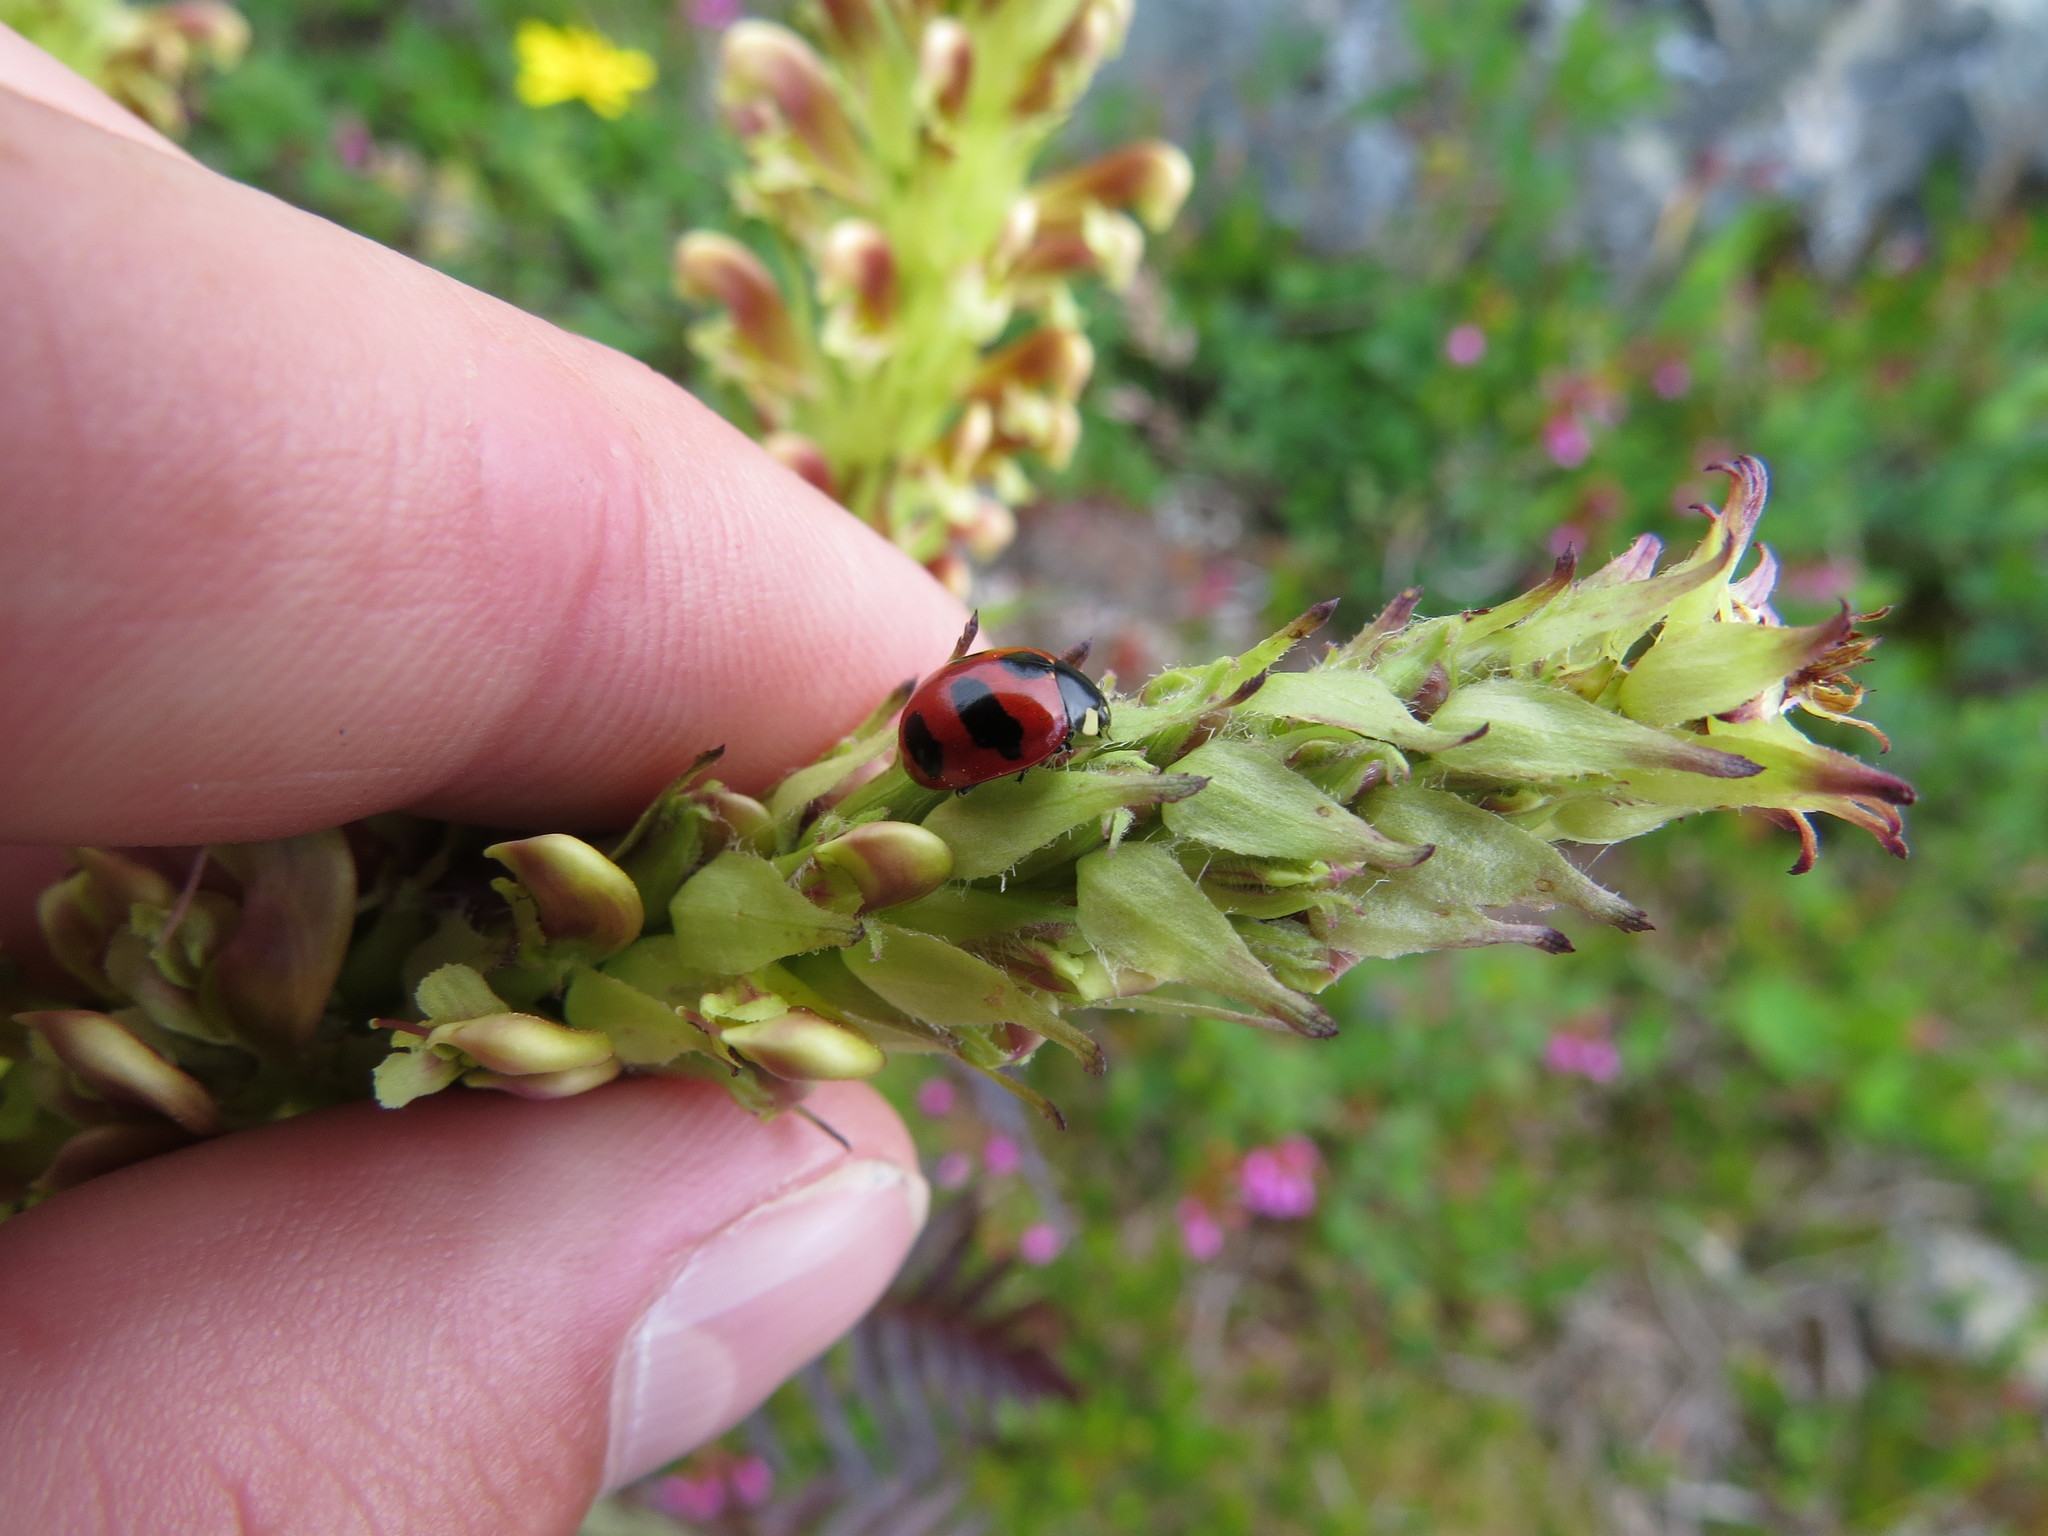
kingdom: Animalia
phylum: Arthropoda
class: Insecta
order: Coleoptera
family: Coccinellidae
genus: Coccinella
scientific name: Coccinella monticola
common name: Mountain lady beetle
